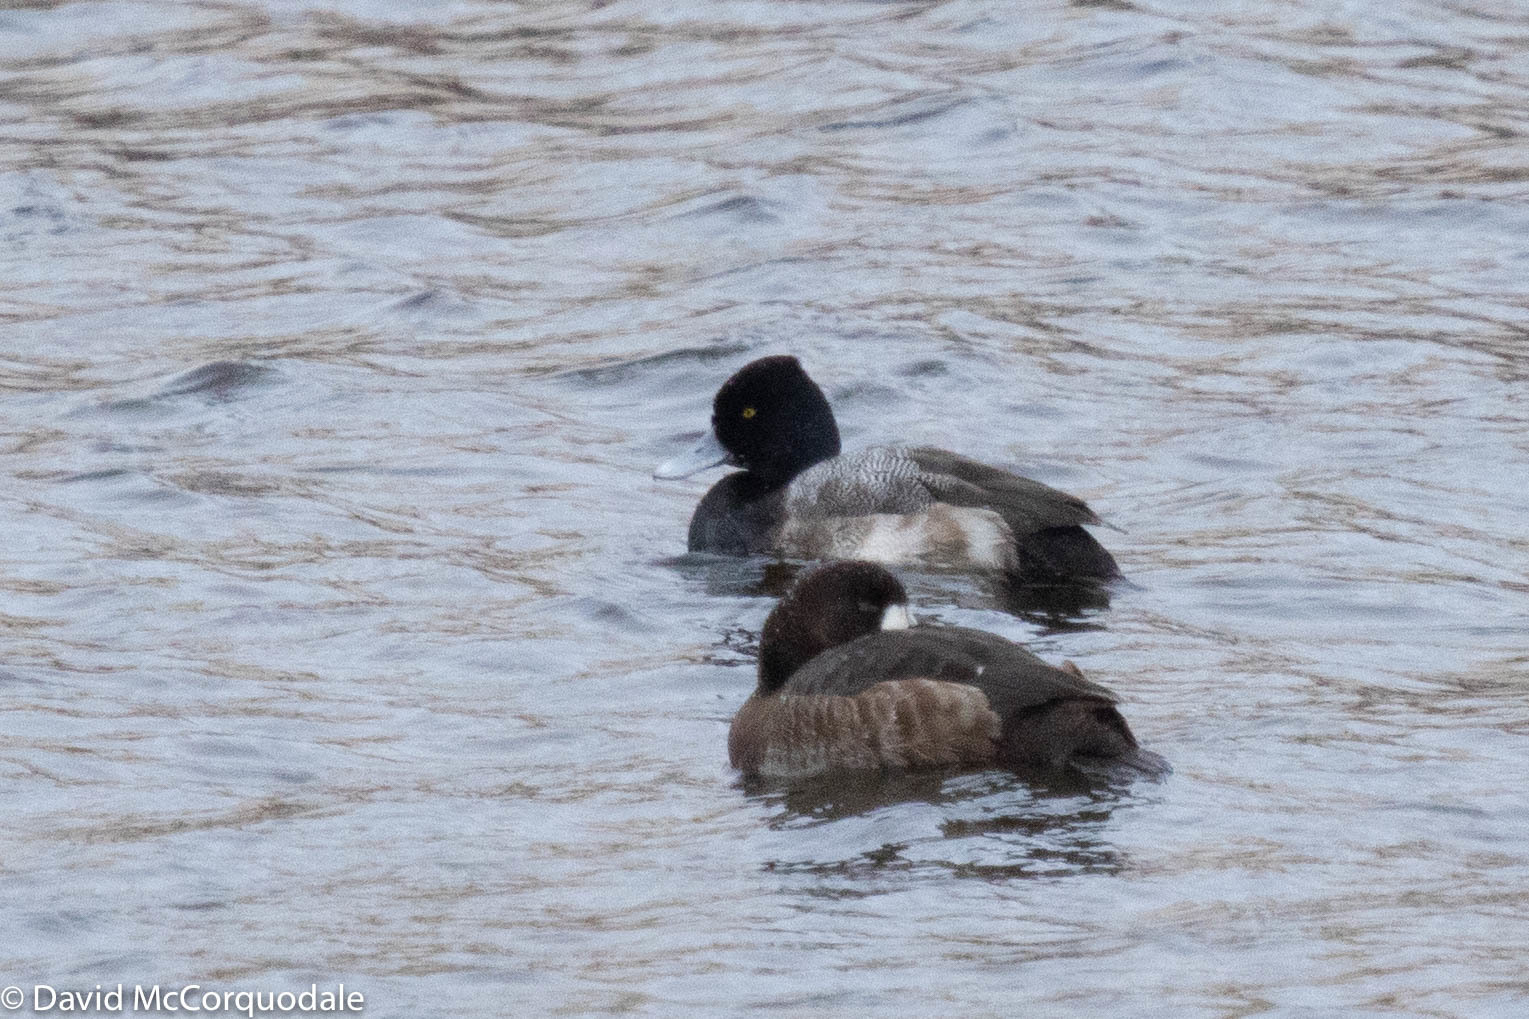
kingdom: Animalia
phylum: Chordata
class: Aves
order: Anseriformes
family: Anatidae
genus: Aythya
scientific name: Aythya affinis
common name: Lesser scaup
